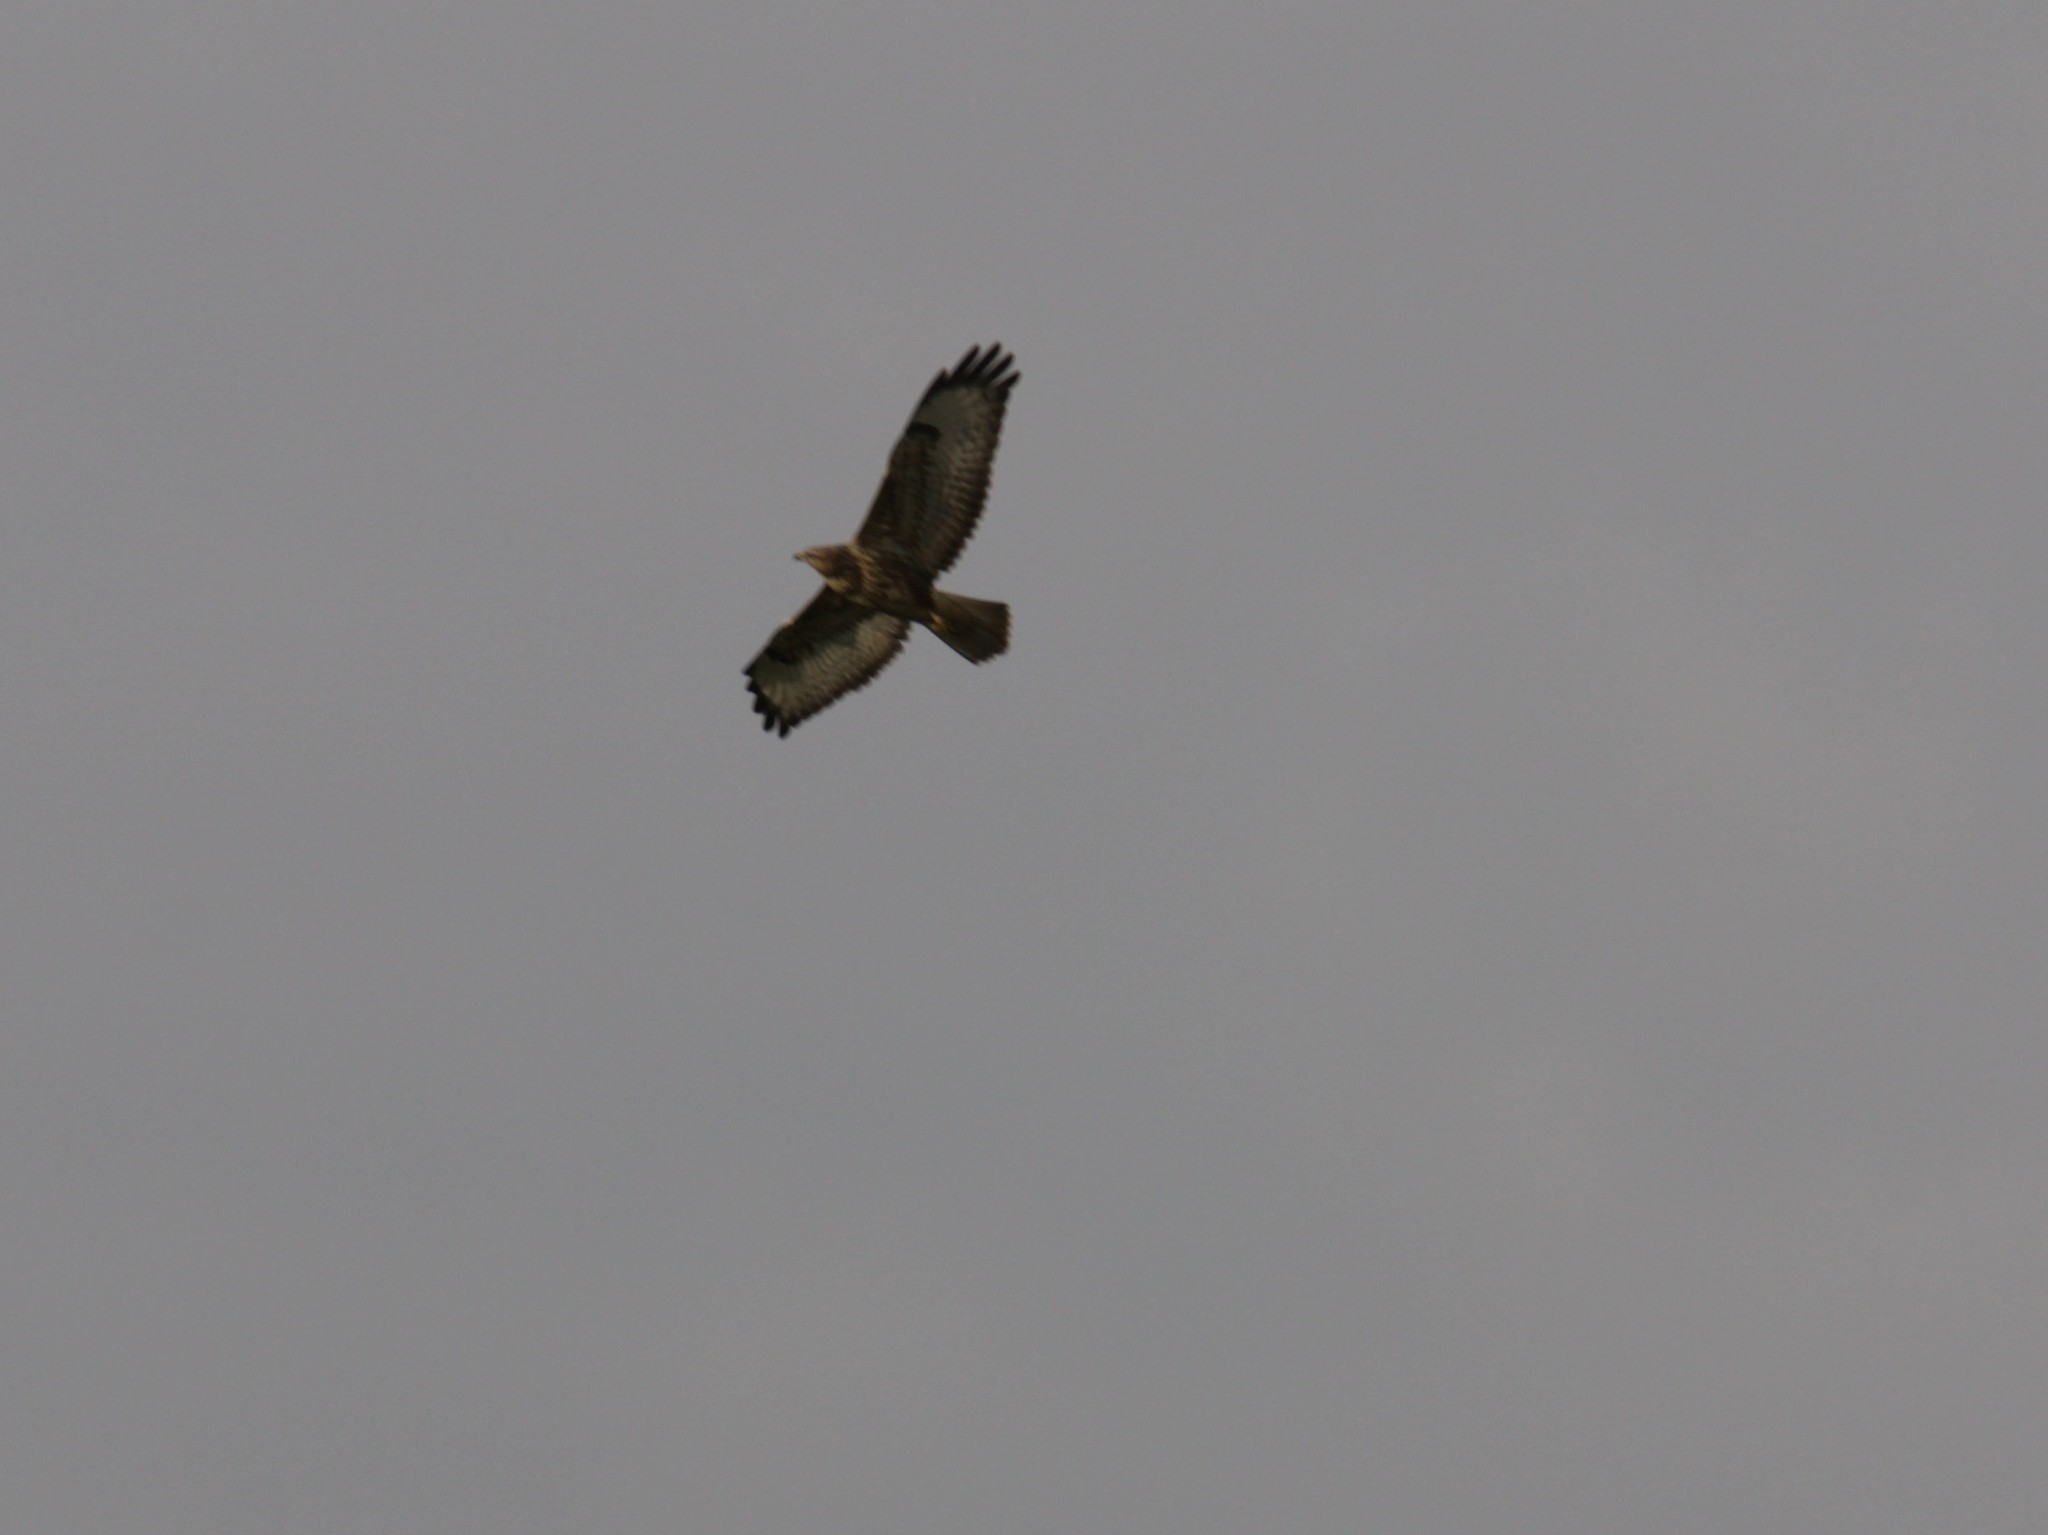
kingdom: Animalia
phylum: Chordata
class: Aves
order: Accipitriformes
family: Accipitridae
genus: Buteo
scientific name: Buteo buteo
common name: Common buzzard
